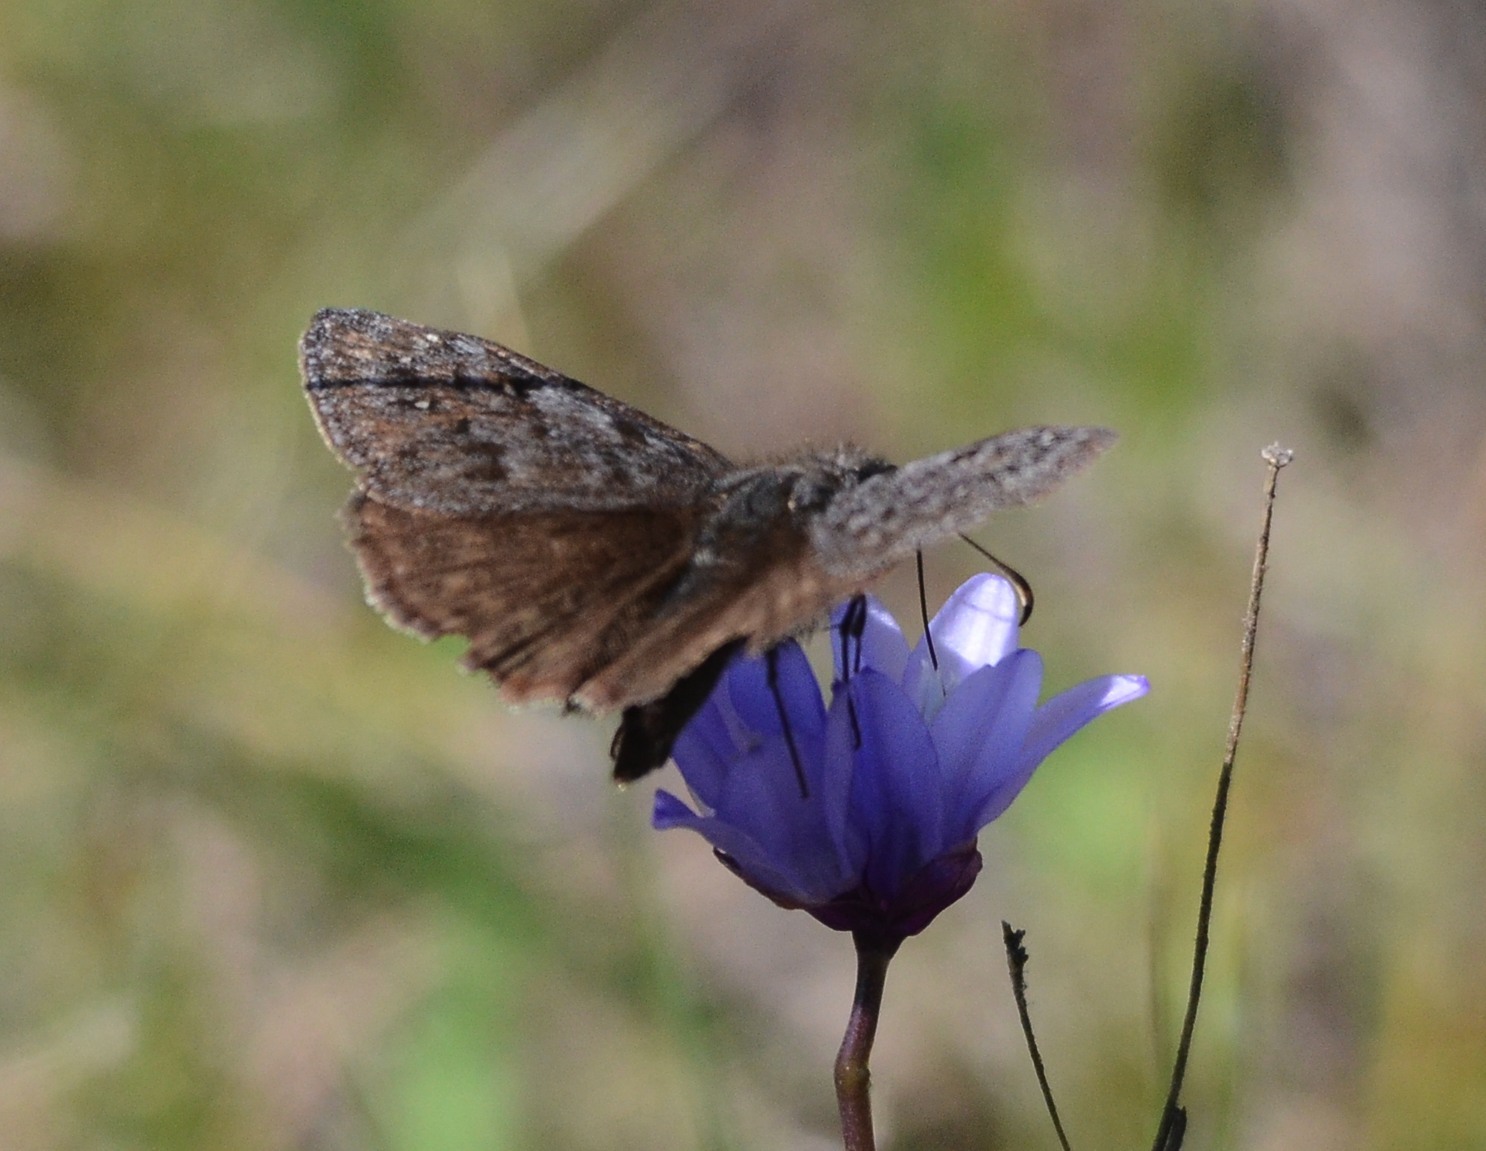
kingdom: Animalia
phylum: Arthropoda
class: Insecta
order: Lepidoptera
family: Hesperiidae
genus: Erynnis
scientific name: Erynnis propertius
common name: Propertius duskywing
